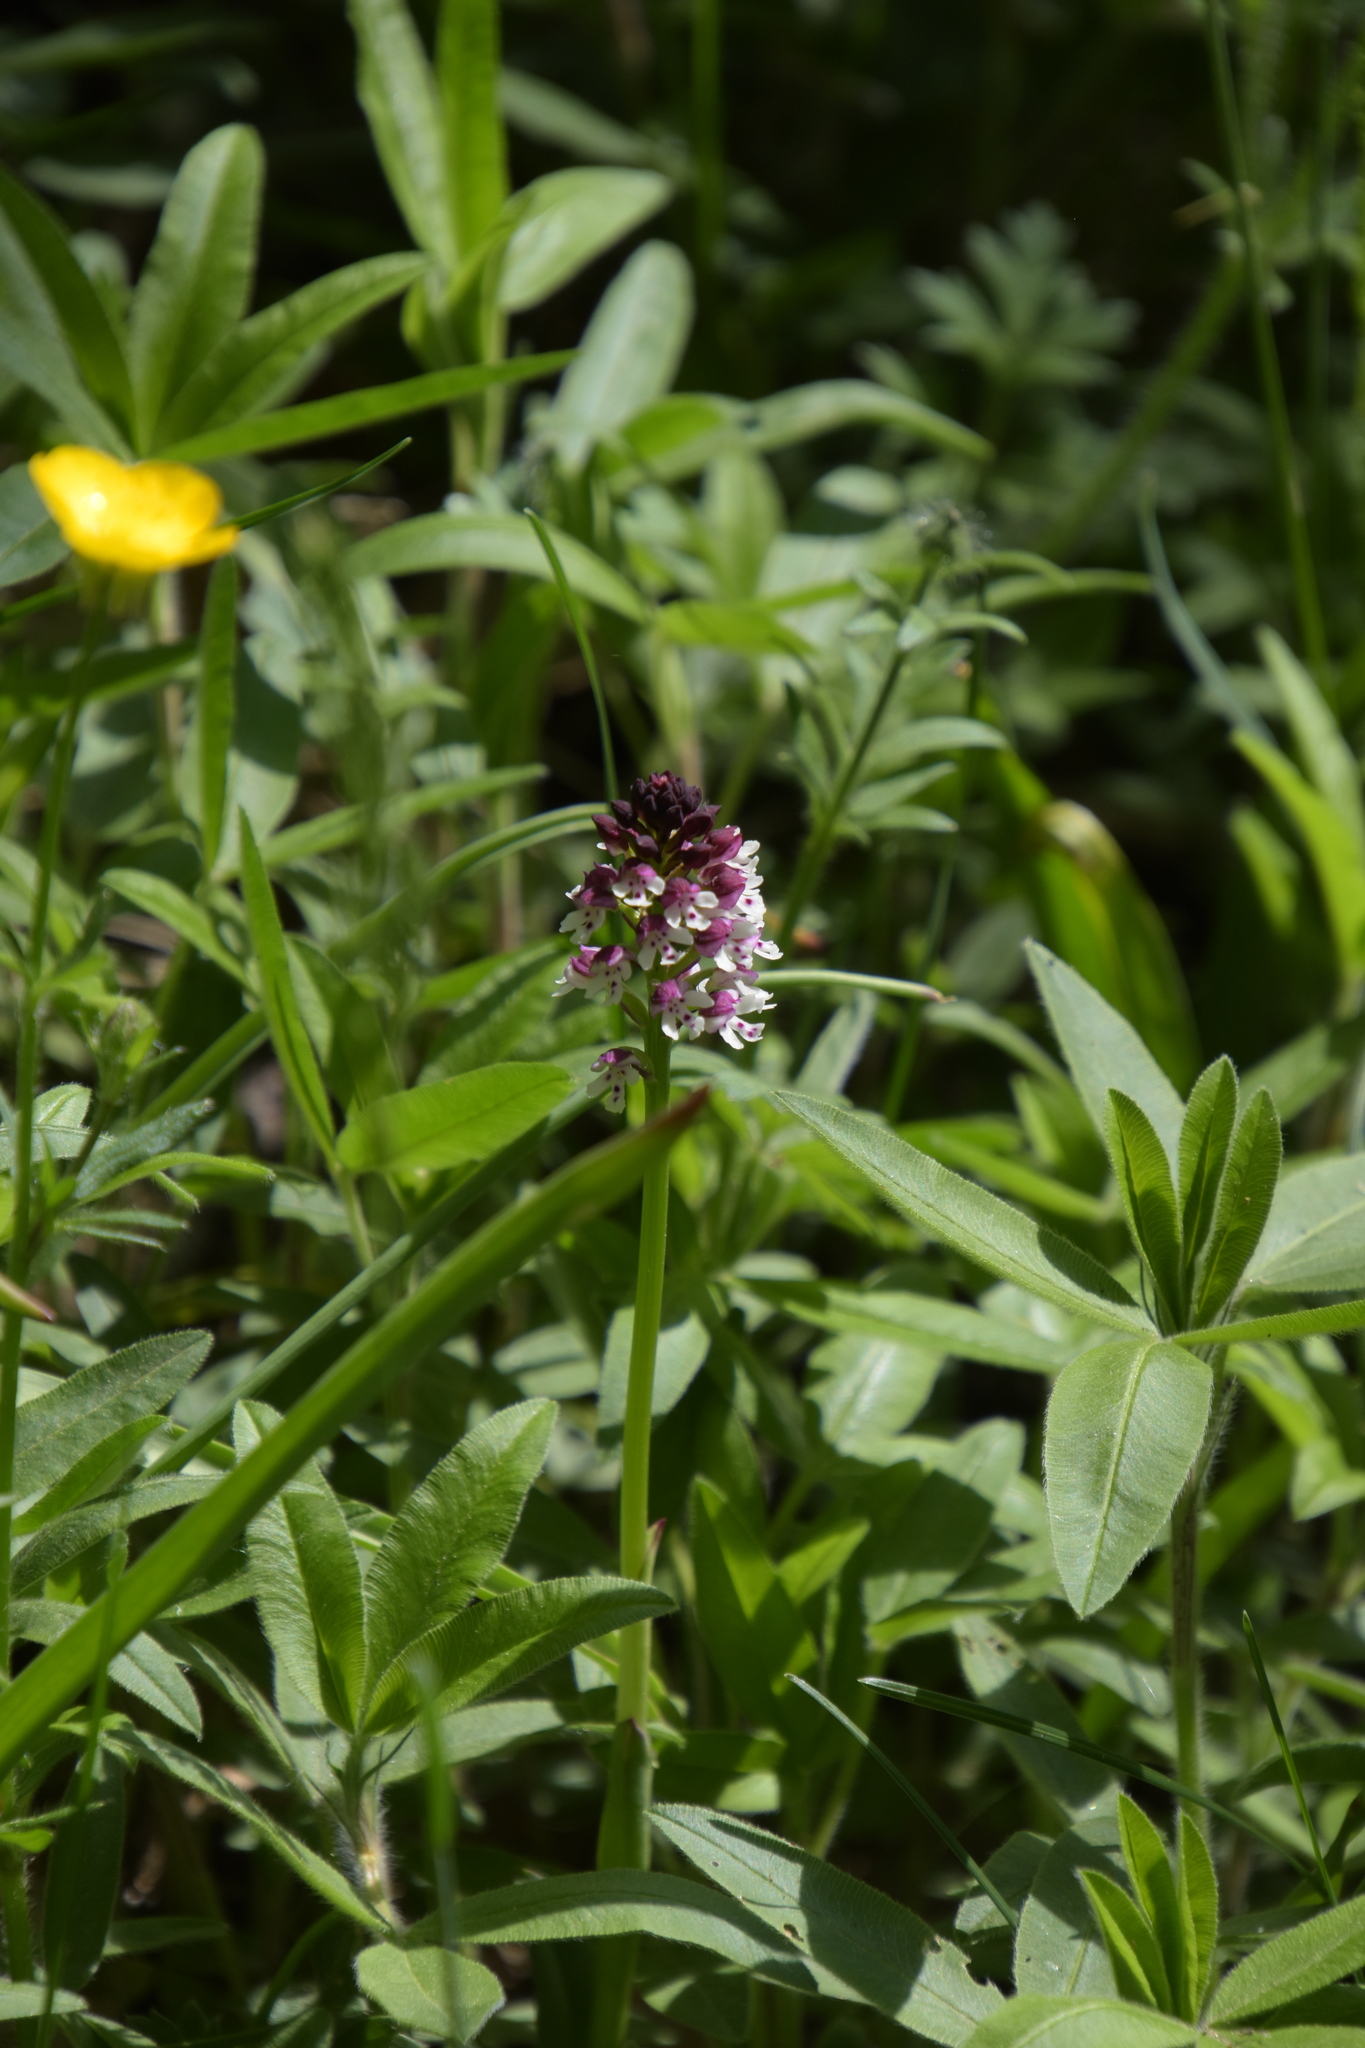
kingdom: Plantae
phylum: Tracheophyta
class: Liliopsida
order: Asparagales
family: Orchidaceae
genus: Neotinea
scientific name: Neotinea ustulata
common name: Burnt orchid
